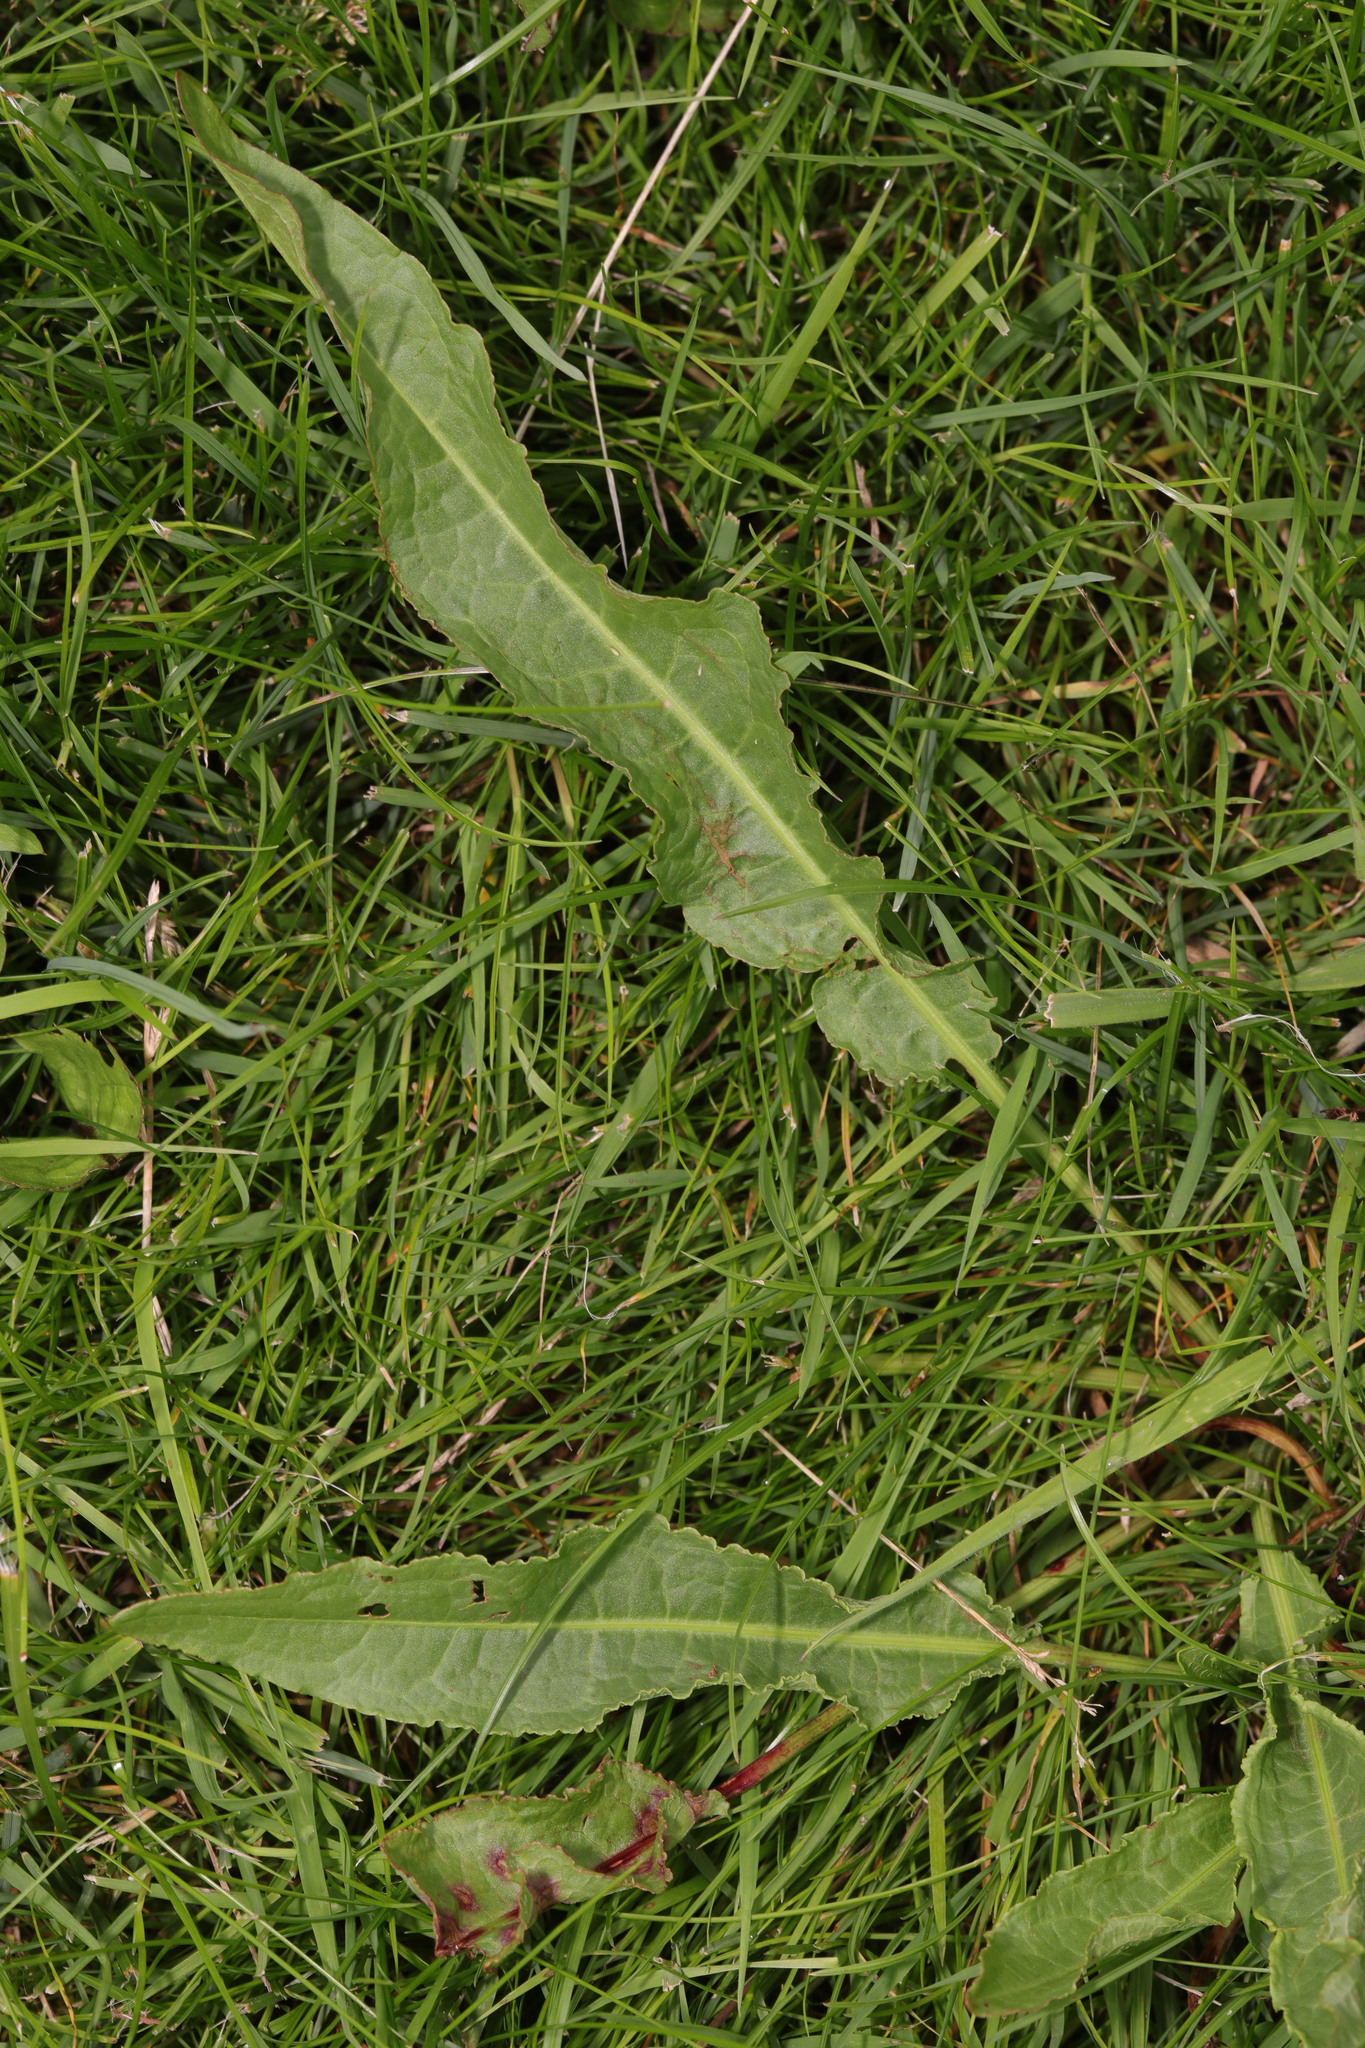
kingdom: Plantae
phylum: Tracheophyta
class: Magnoliopsida
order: Caryophyllales
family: Polygonaceae
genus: Rumex
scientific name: Rumex crispus
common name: Curled dock
